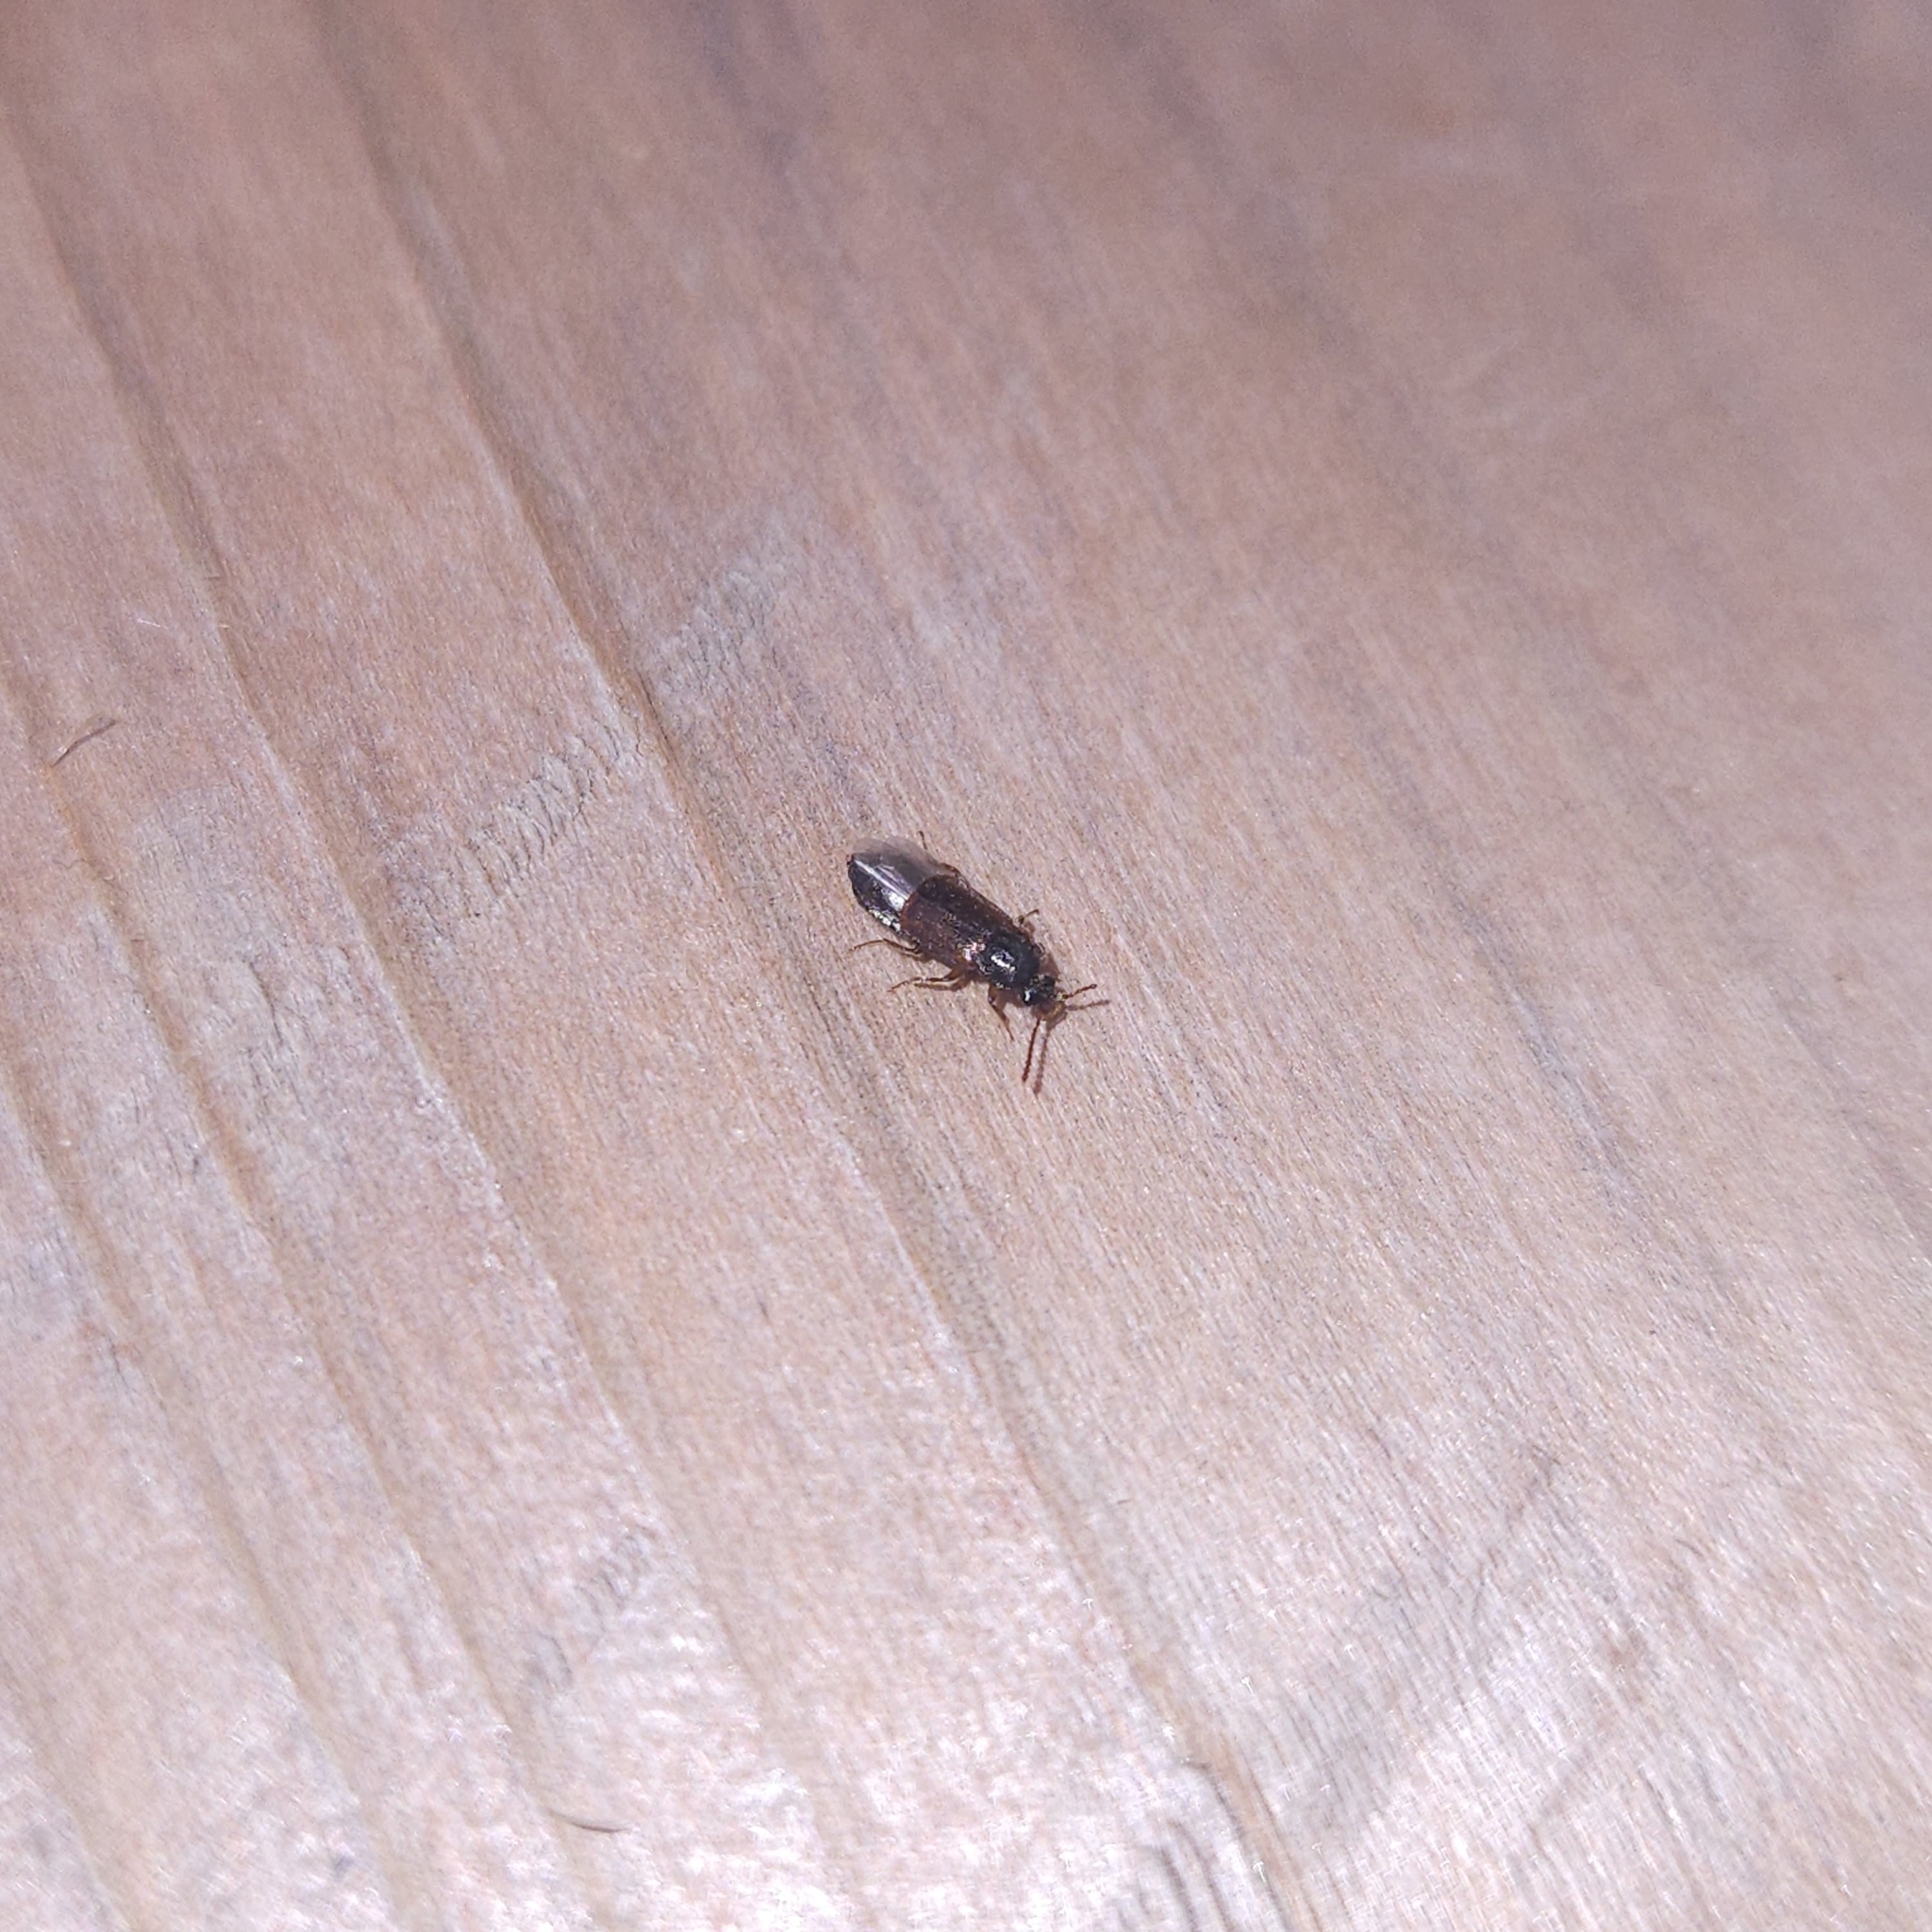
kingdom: Animalia
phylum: Arthropoda
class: Insecta
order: Coleoptera
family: Staphylinidae
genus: Acidota
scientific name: Acidota subcarinata
